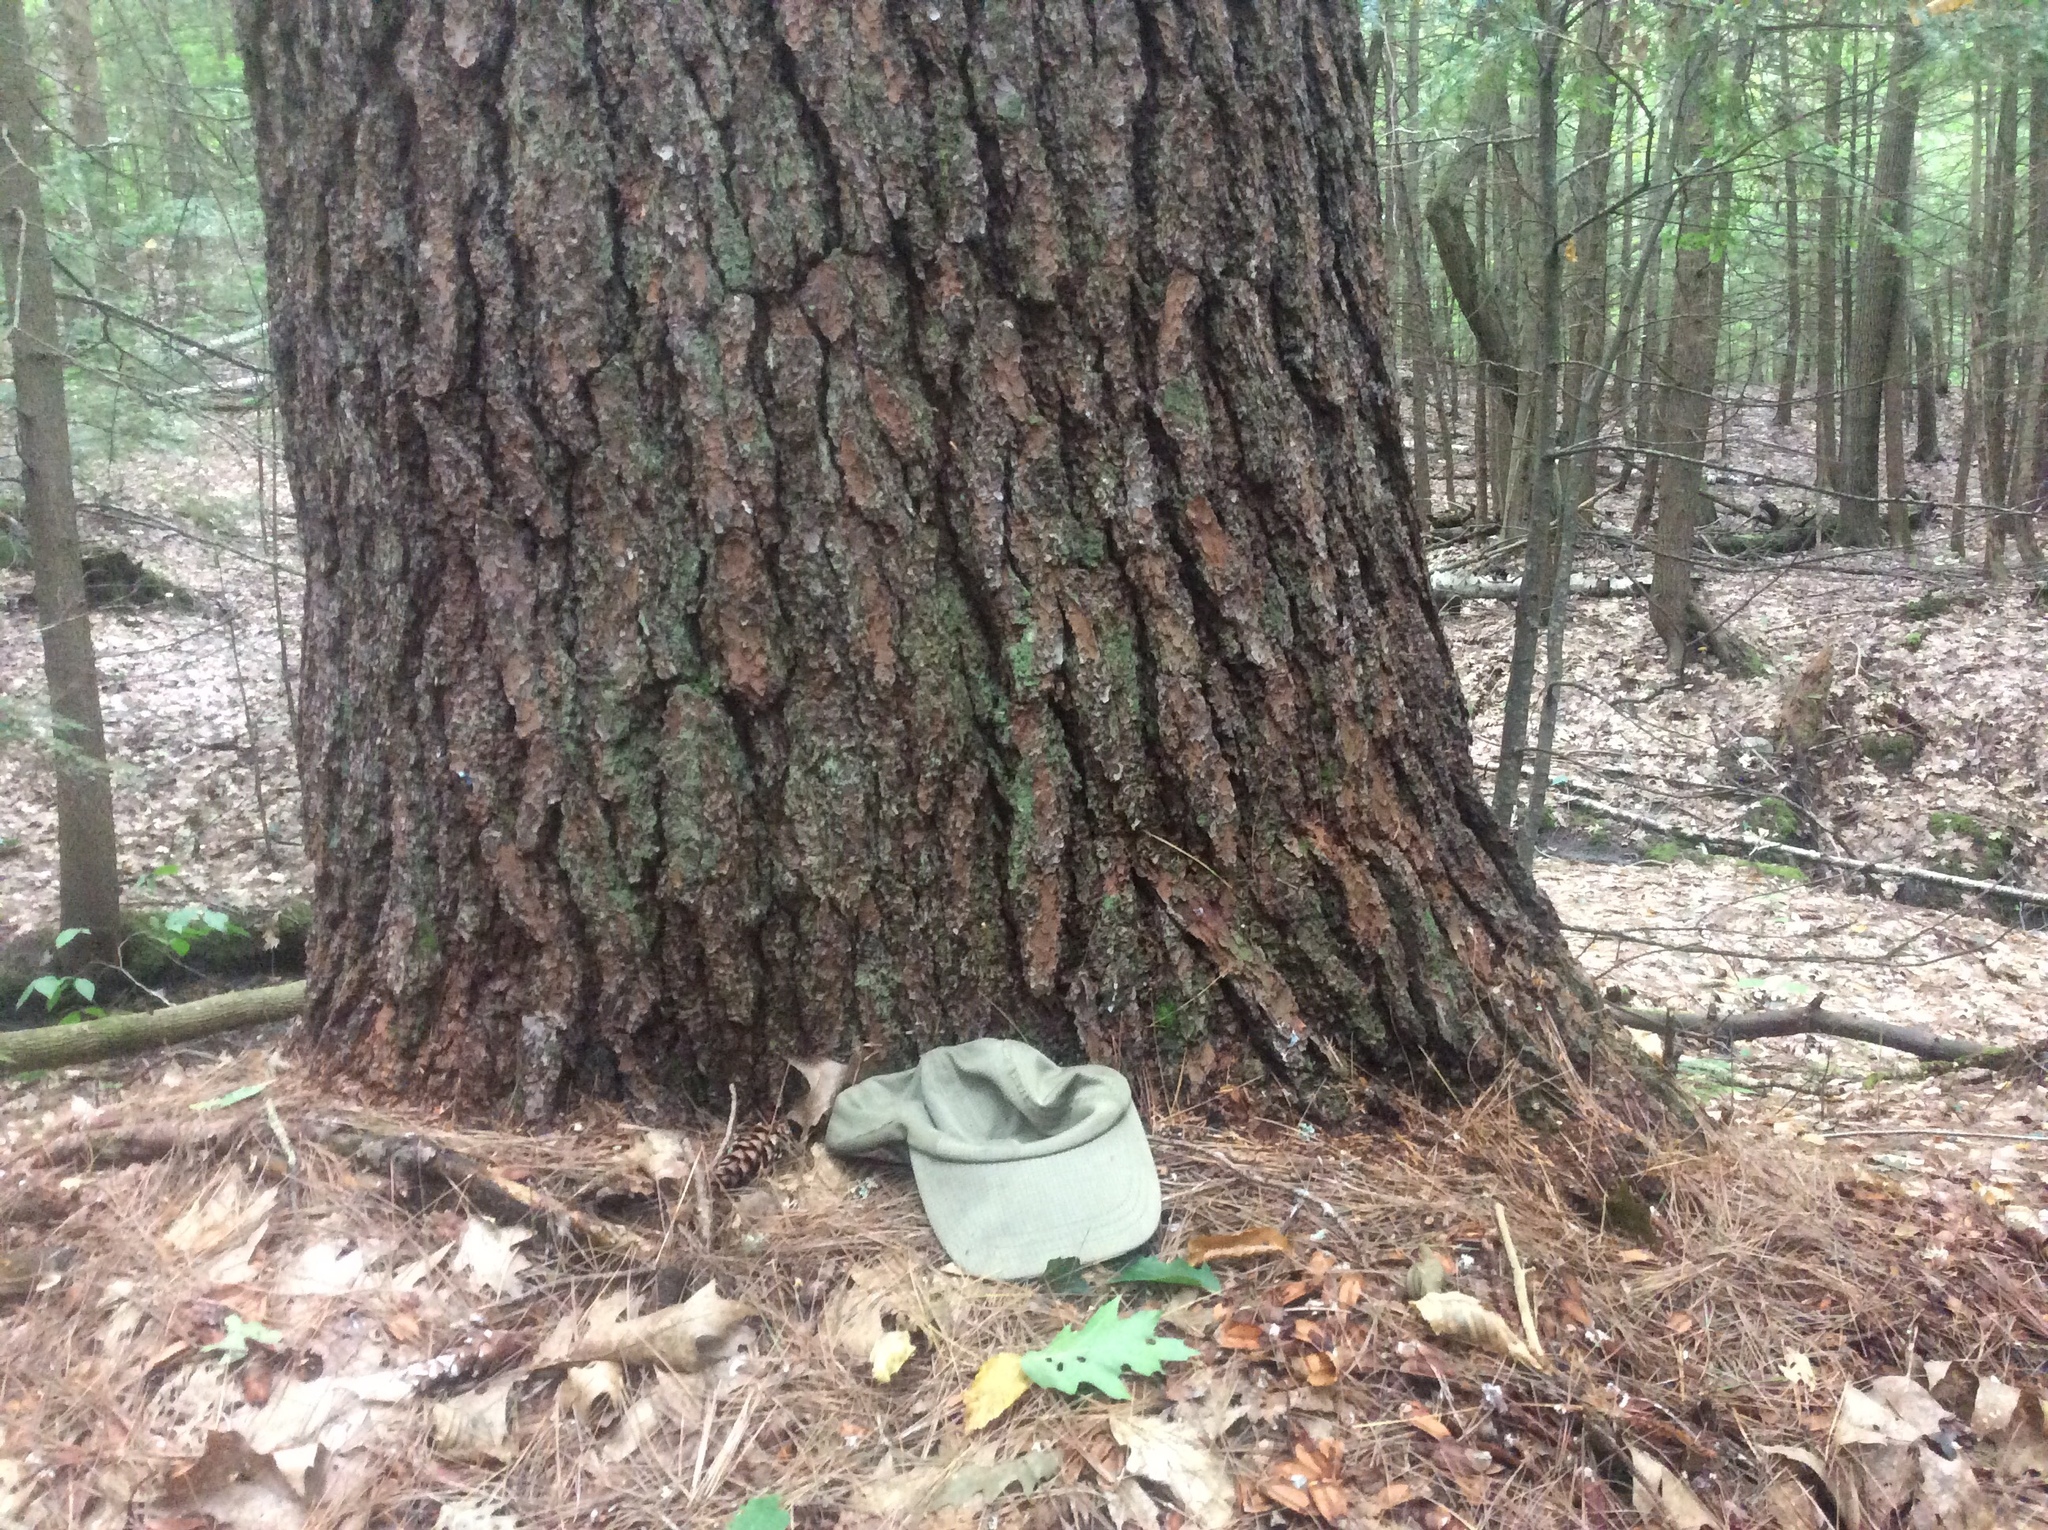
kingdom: Plantae
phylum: Tracheophyta
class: Pinopsida
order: Pinales
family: Pinaceae
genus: Pinus
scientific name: Pinus strobus
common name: Weymouth pine
